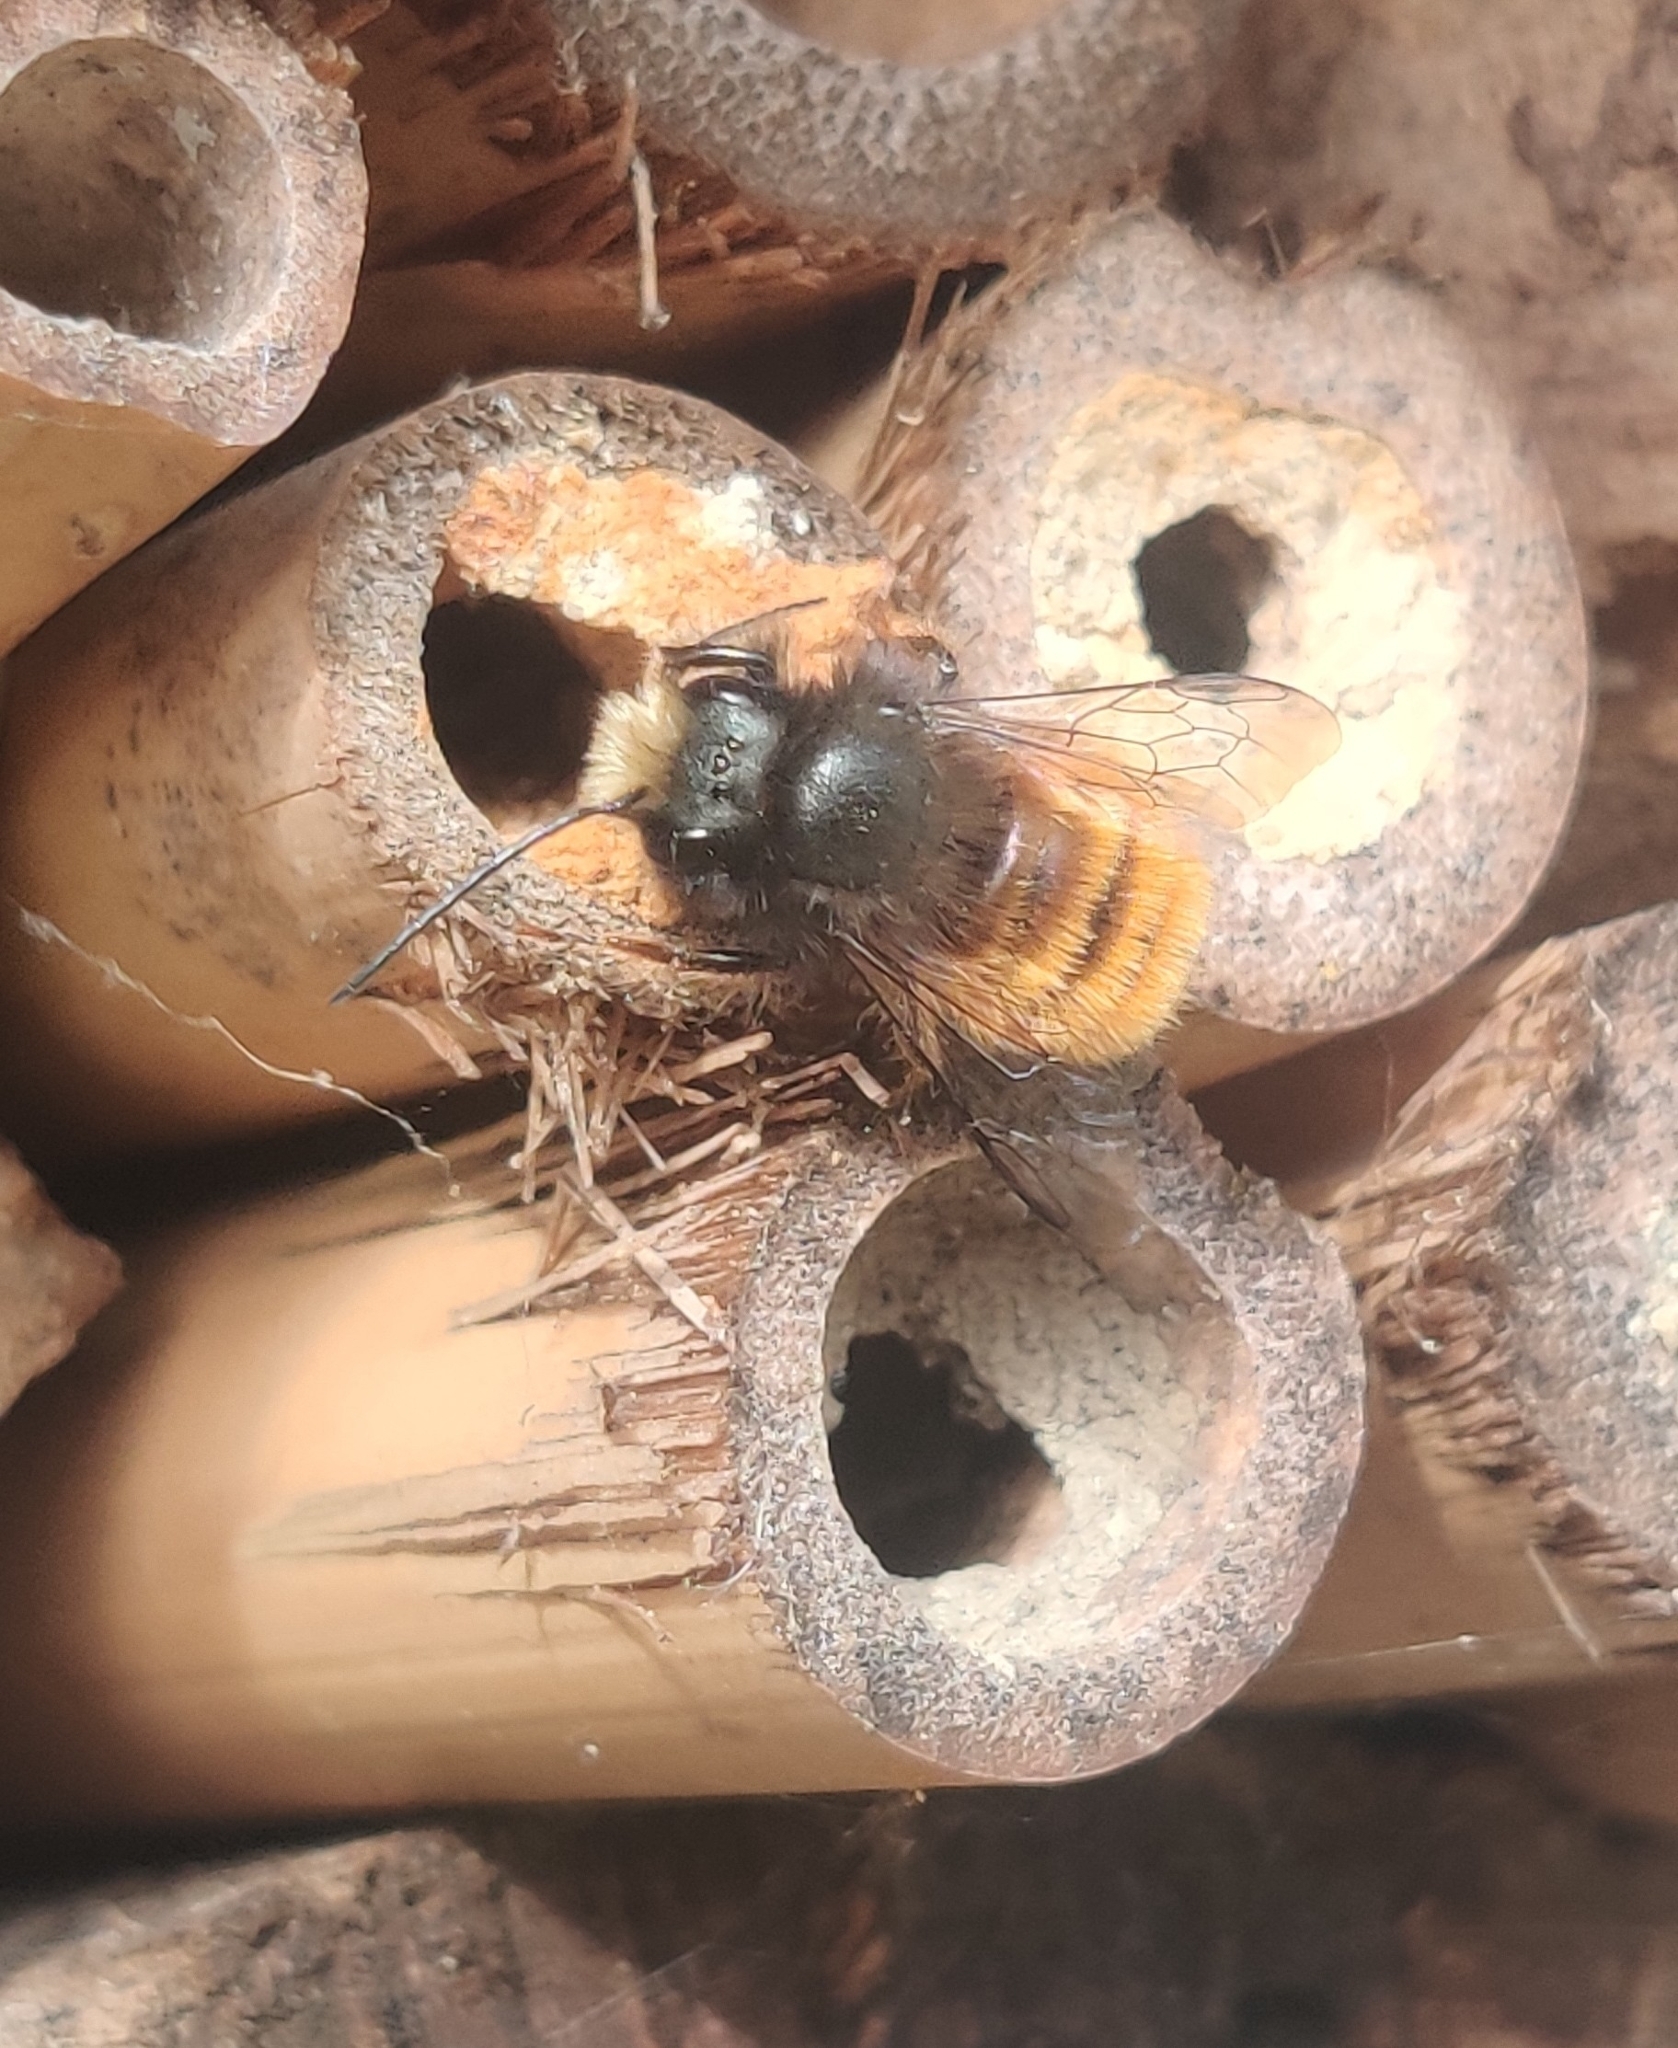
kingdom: Animalia
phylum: Arthropoda
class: Insecta
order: Hymenoptera
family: Megachilidae
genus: Osmia
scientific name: Osmia cornuta
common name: Mason bee
